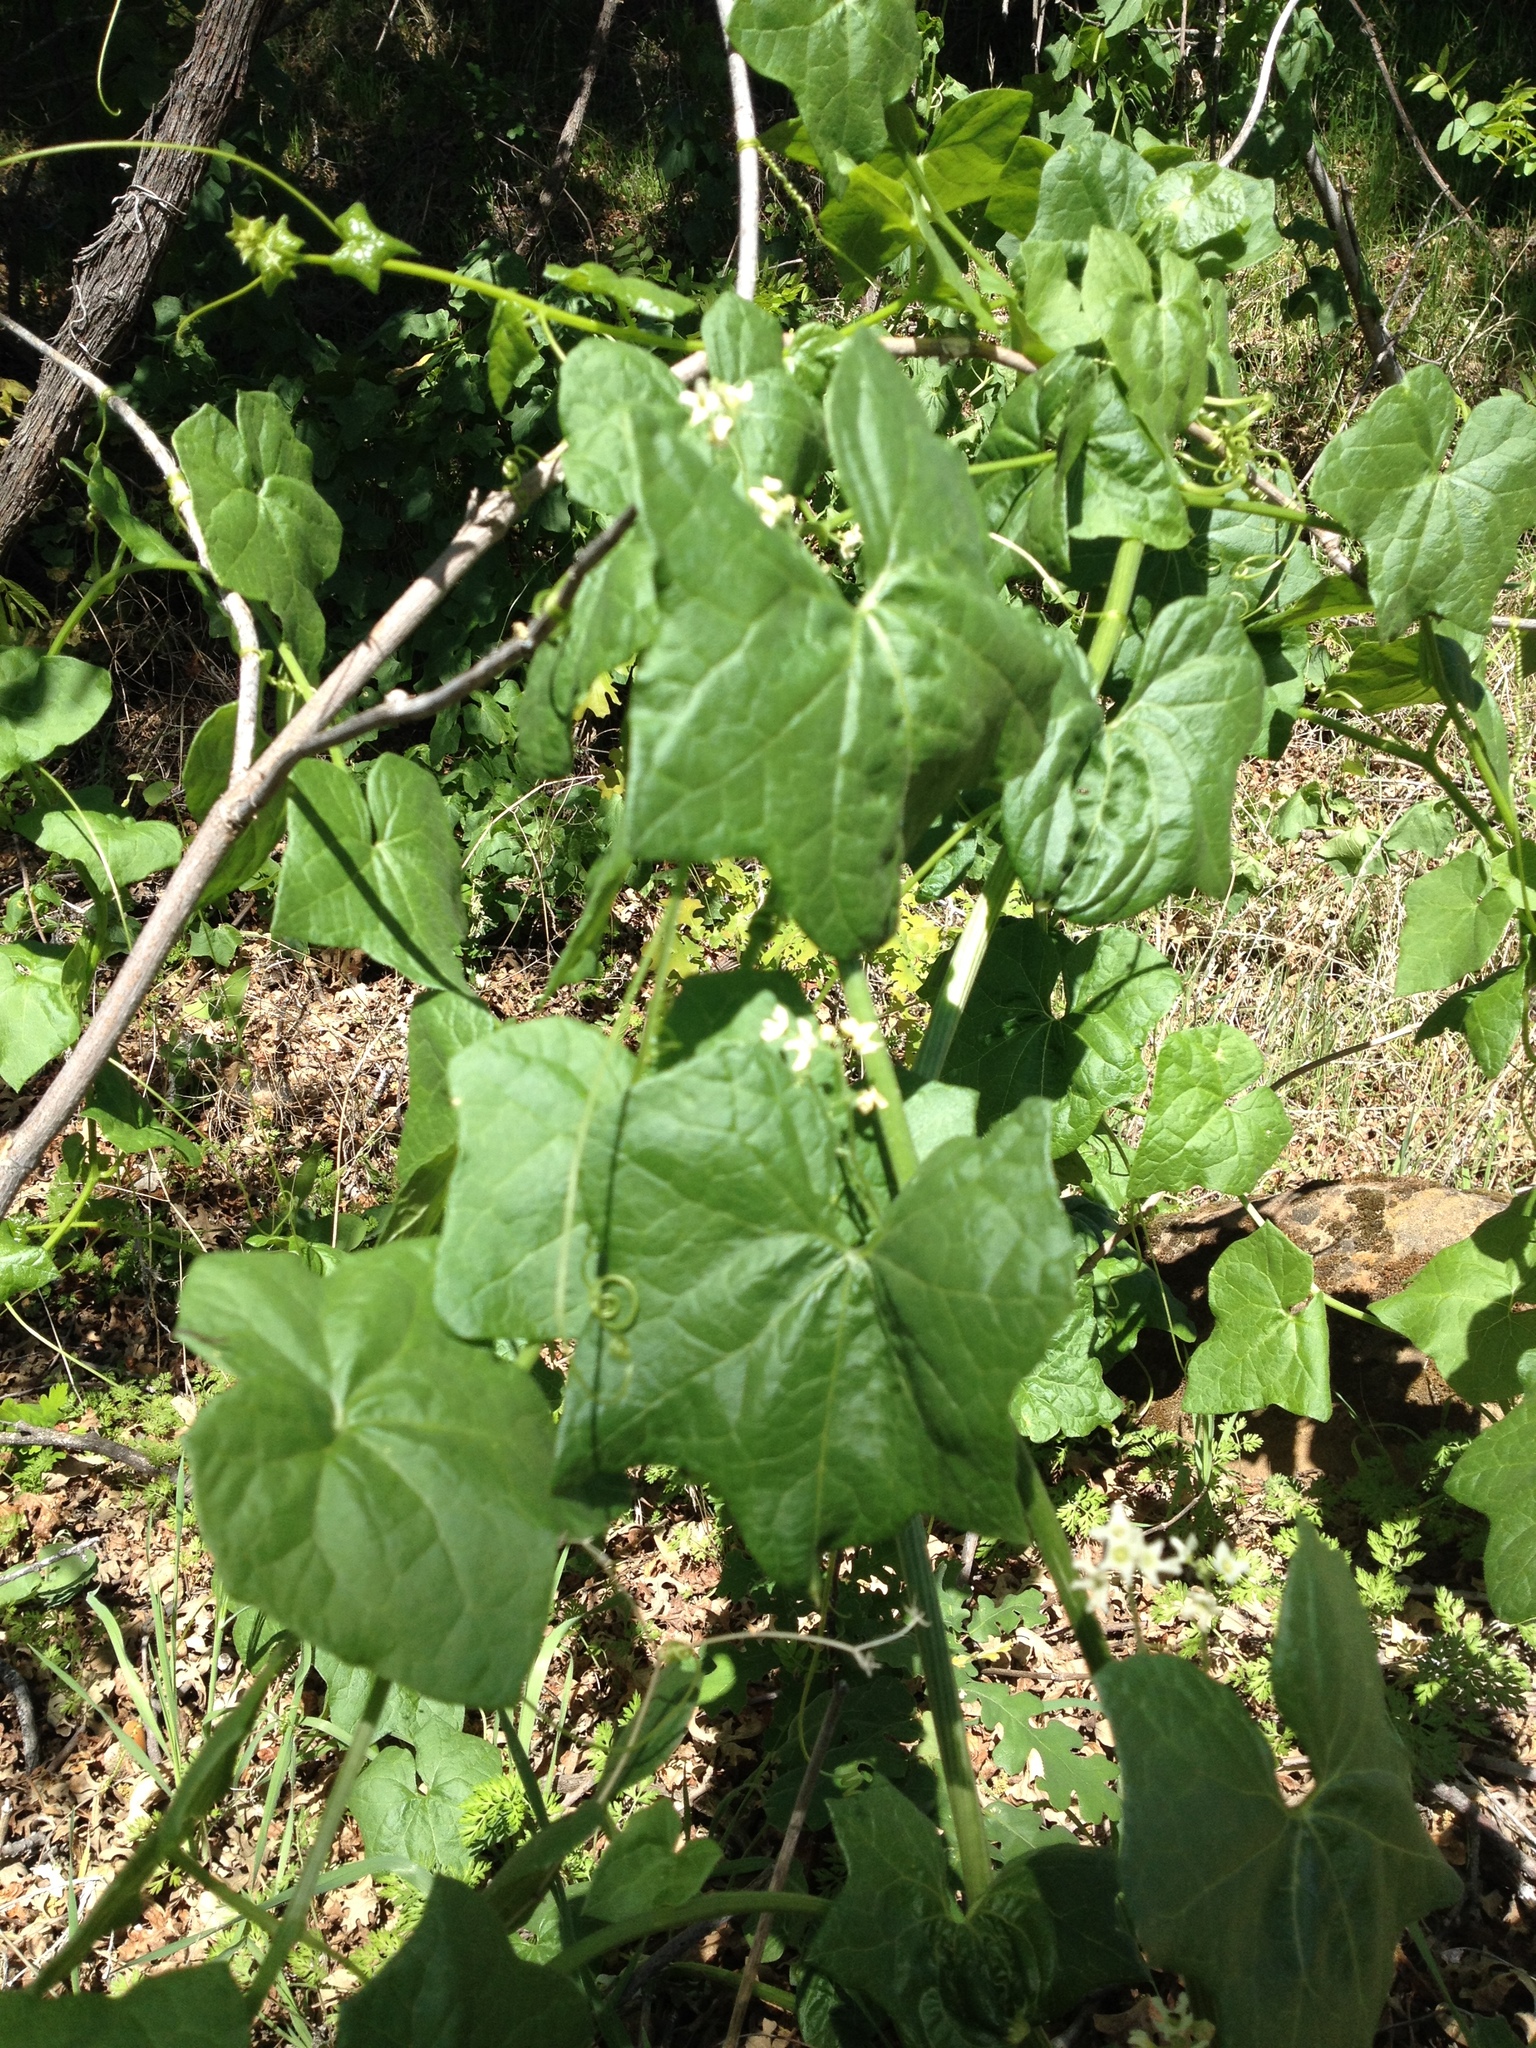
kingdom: Plantae
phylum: Tracheophyta
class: Magnoliopsida
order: Cucurbitales
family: Cucurbitaceae
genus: Marah
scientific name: Marah fabacea
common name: California manroot
